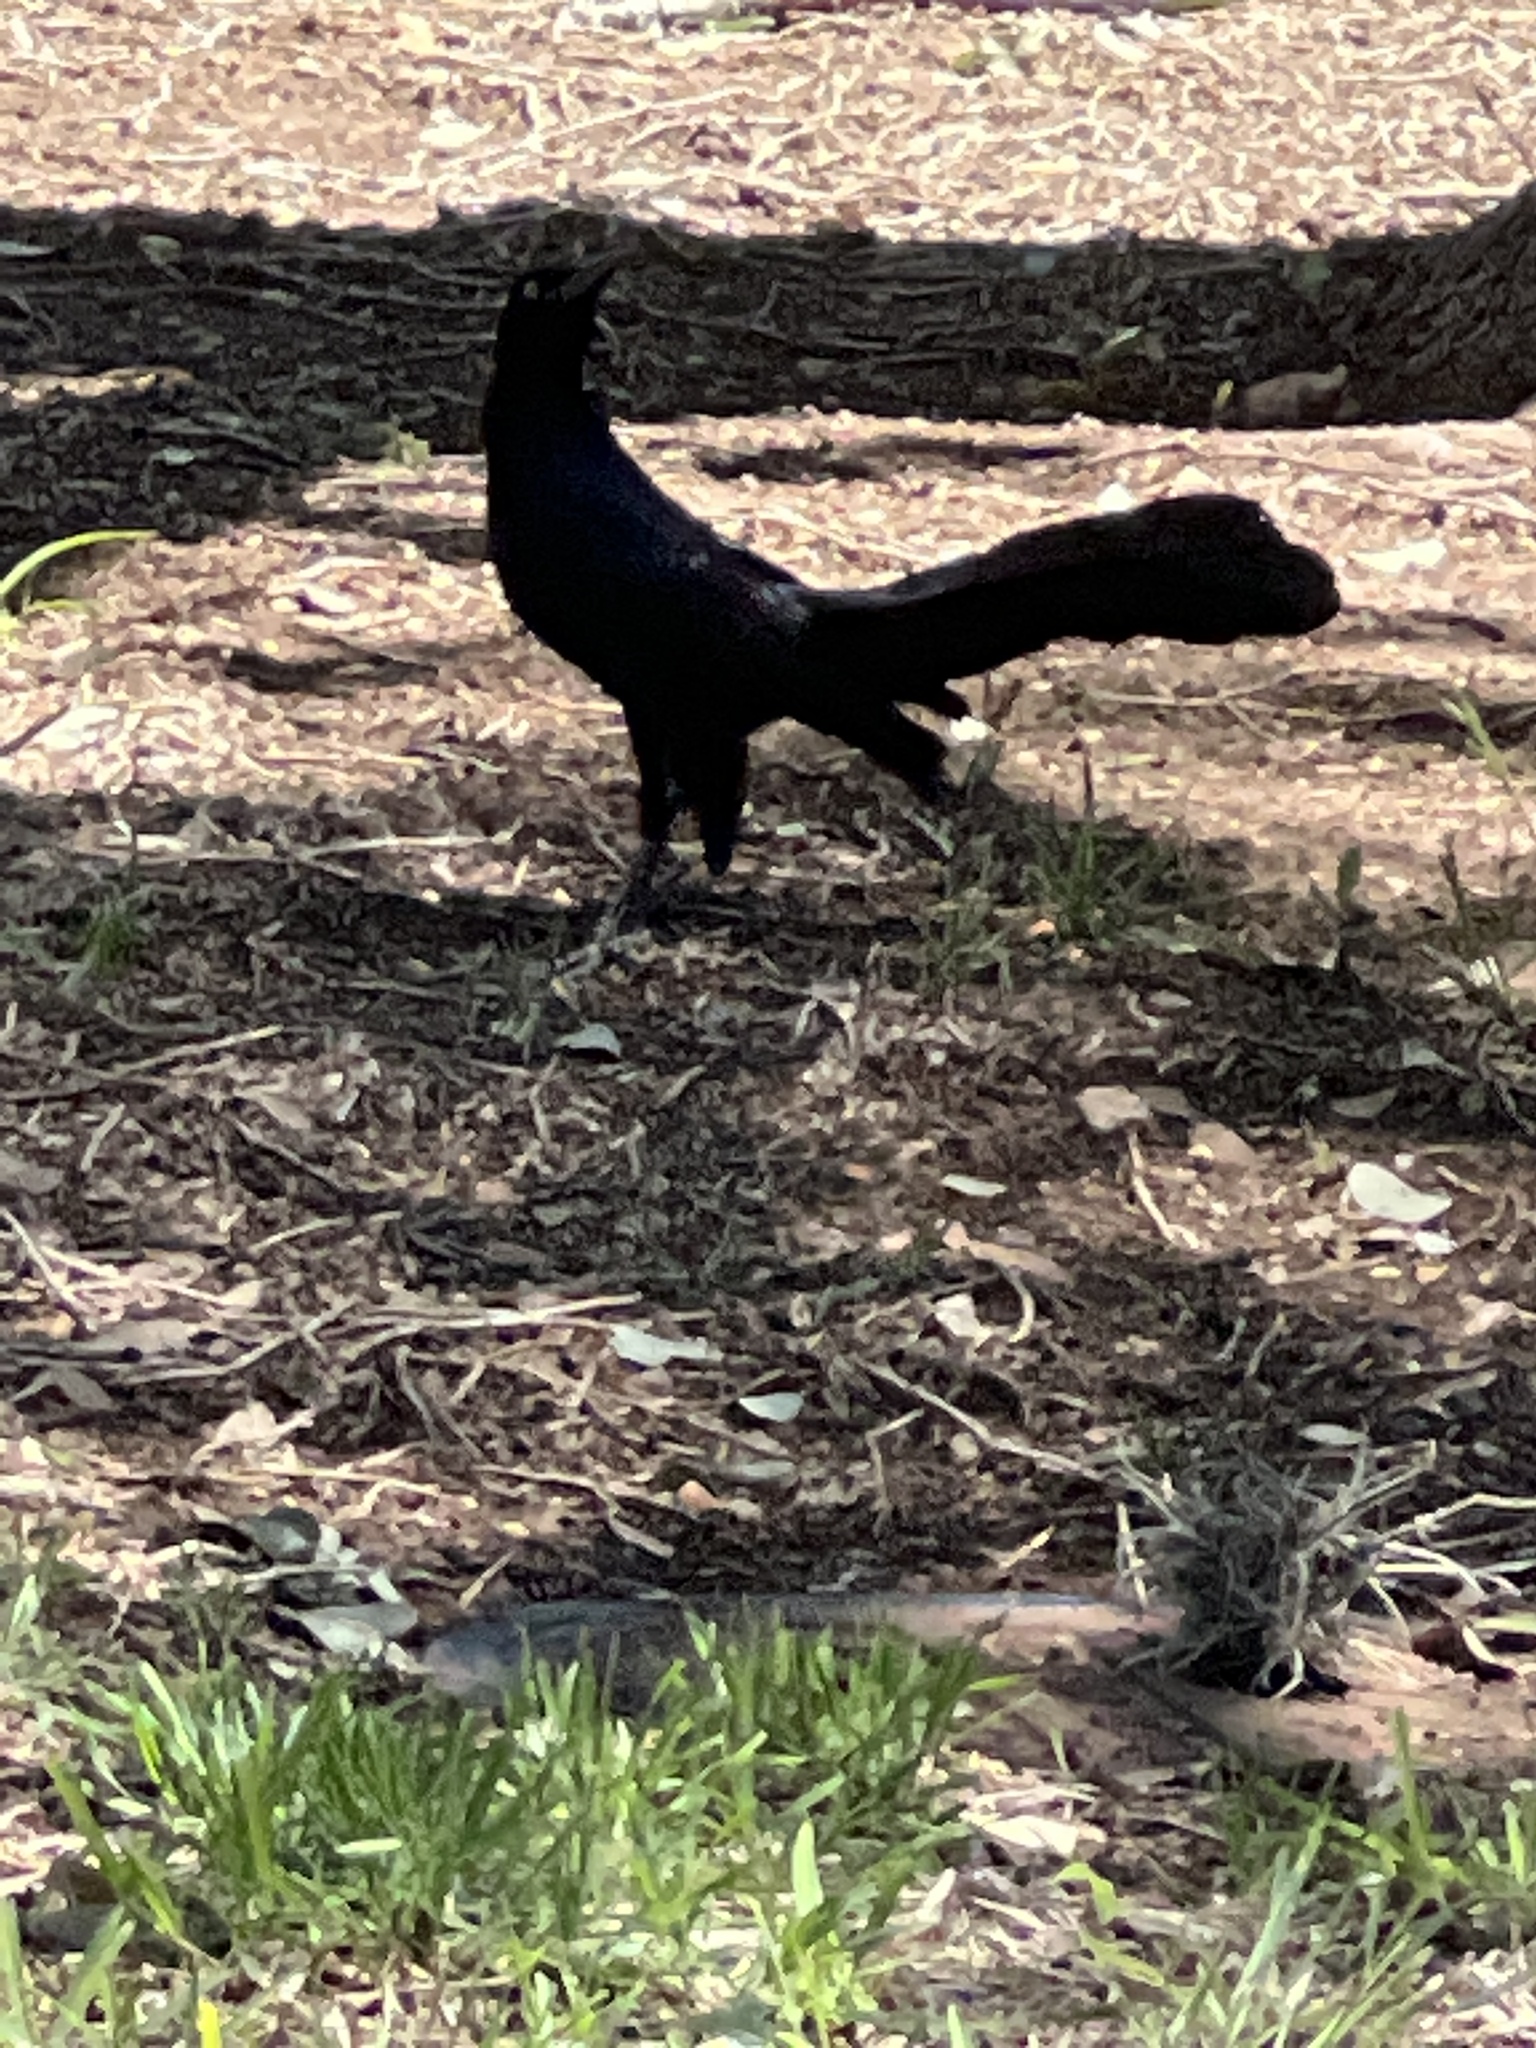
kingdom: Animalia
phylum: Chordata
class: Aves
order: Passeriformes
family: Icteridae
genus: Quiscalus
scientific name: Quiscalus mexicanus
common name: Great-tailed grackle
